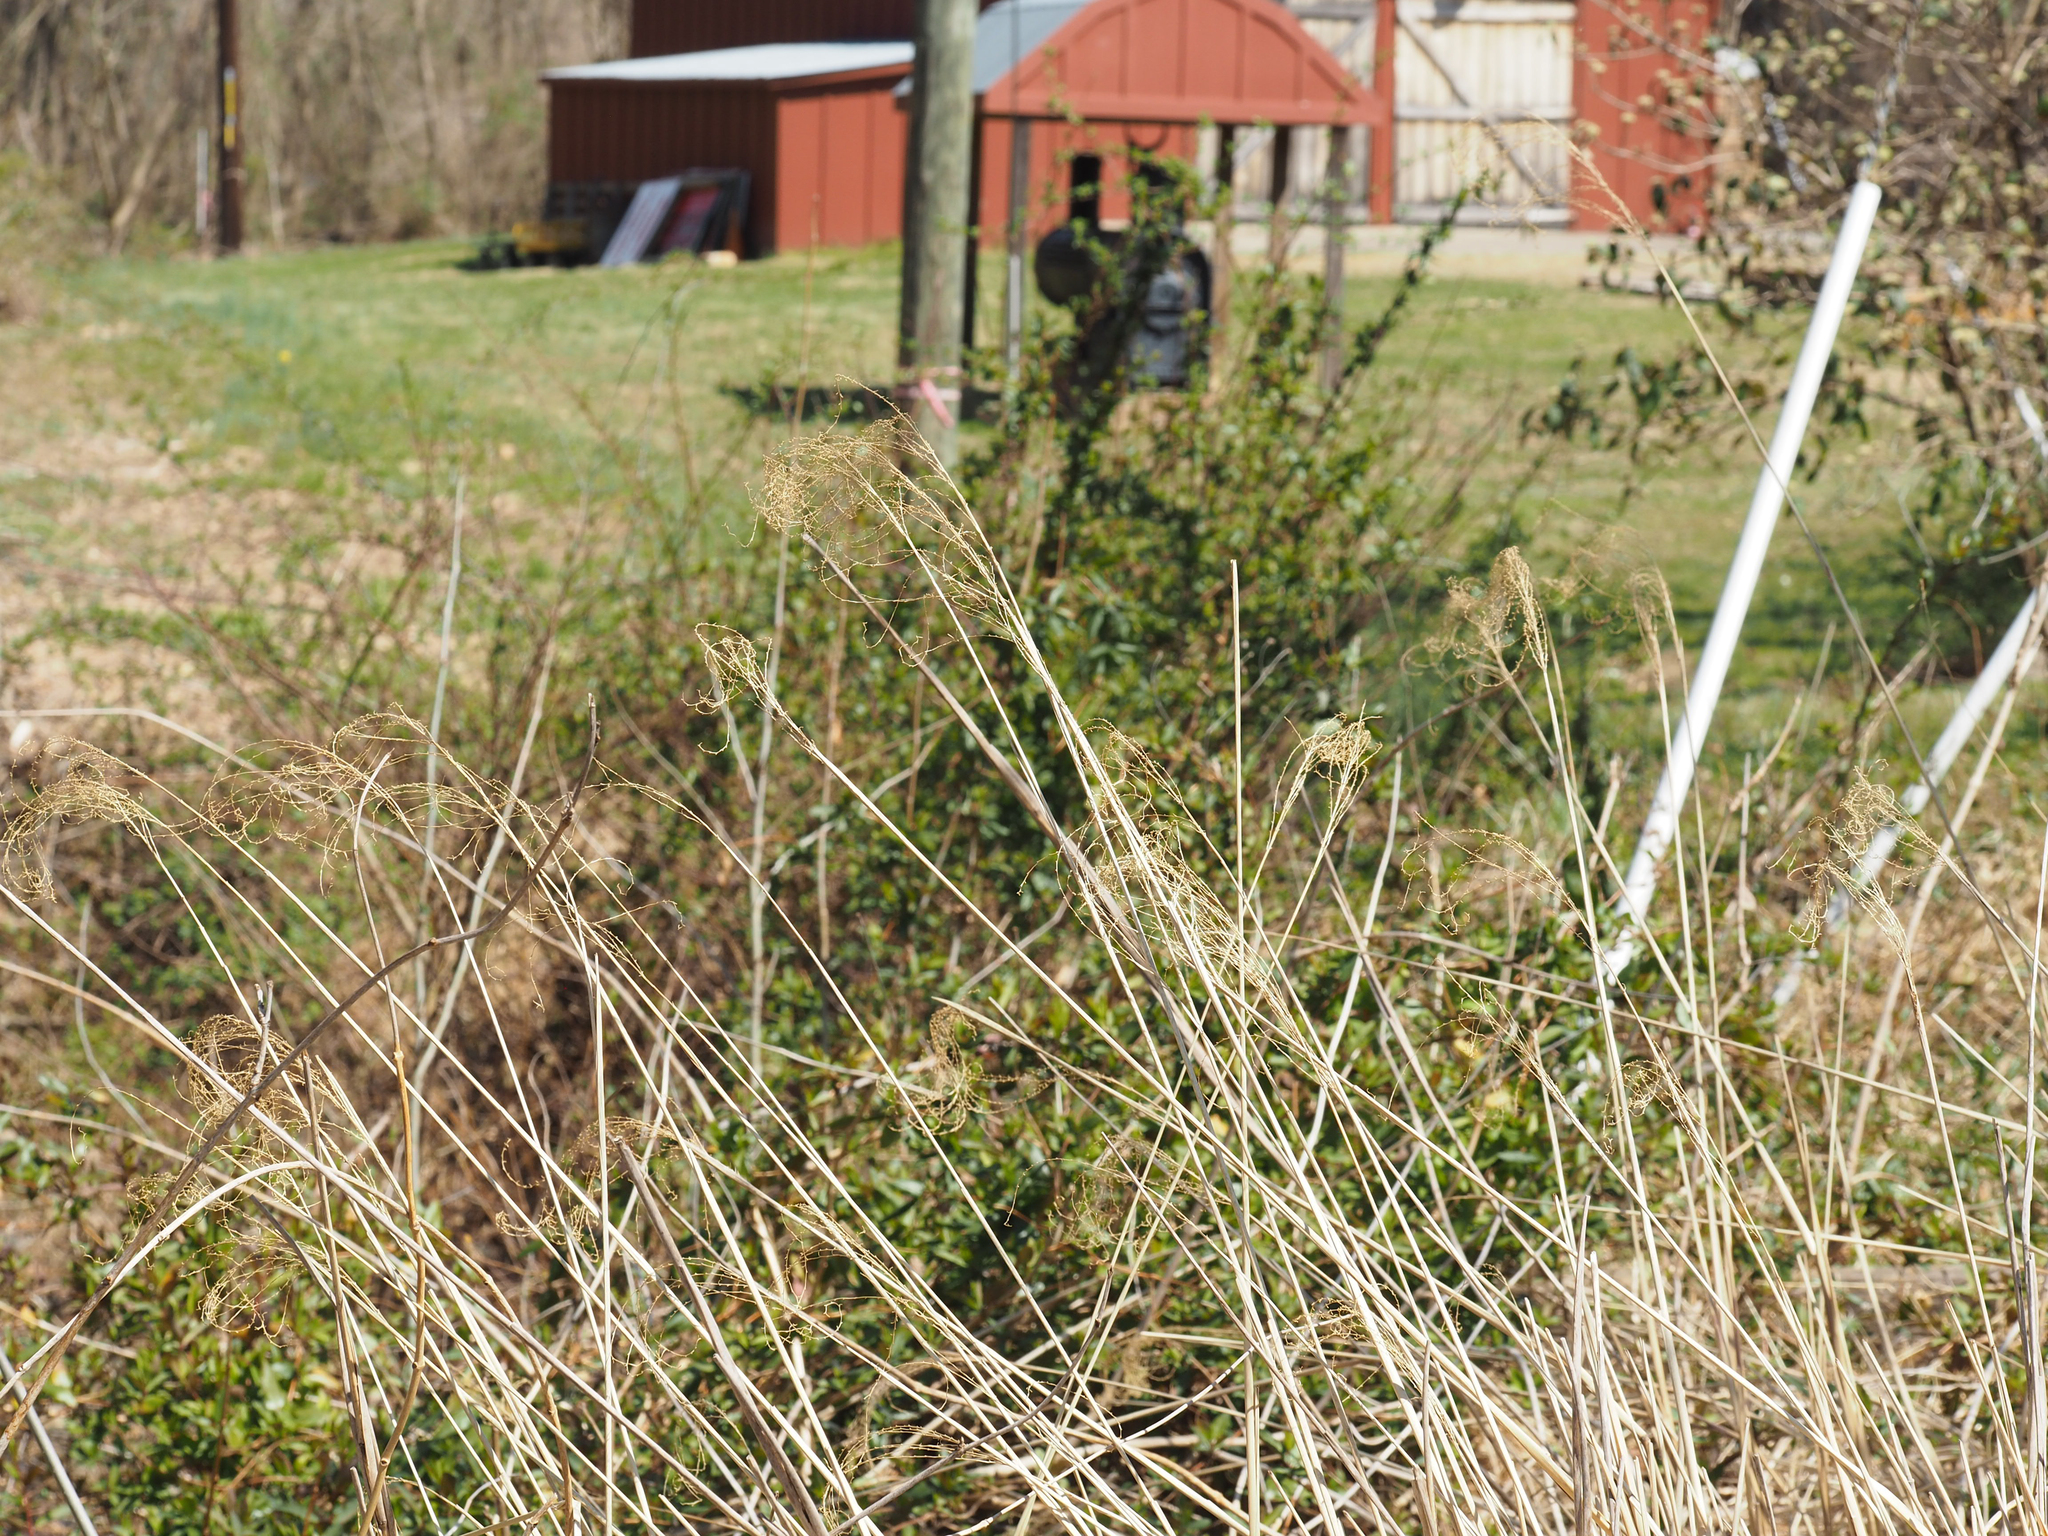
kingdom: Plantae
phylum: Tracheophyta
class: Liliopsida
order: Poales
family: Poaceae
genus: Miscanthus
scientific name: Miscanthus sinensis
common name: Chinese silvergrass
